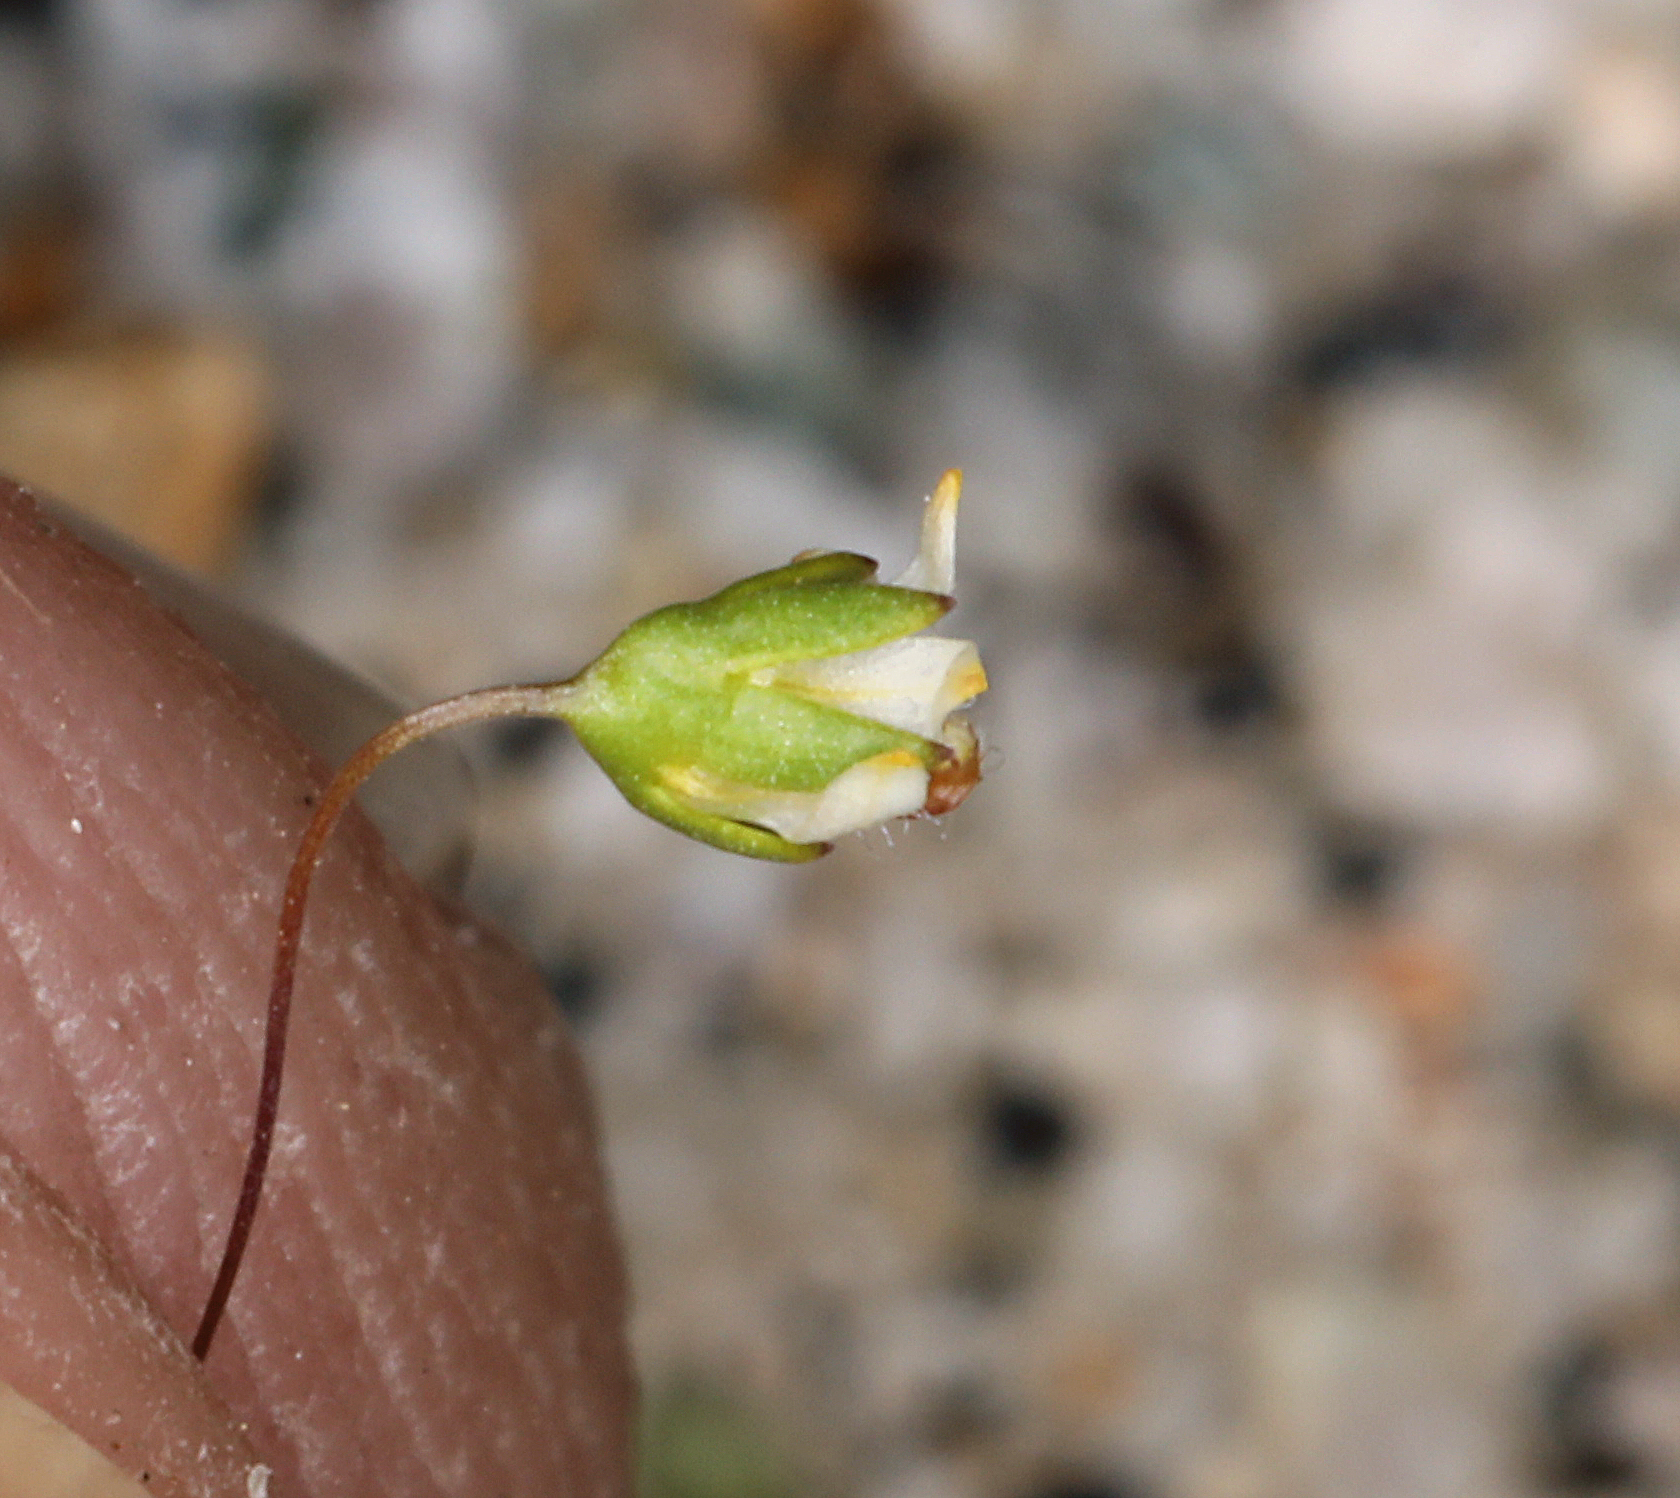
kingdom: Plantae
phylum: Tracheophyta
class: Magnoliopsida
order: Asterales
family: Campanulaceae
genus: Nemacladus
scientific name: Nemacladus eastwoodiae
